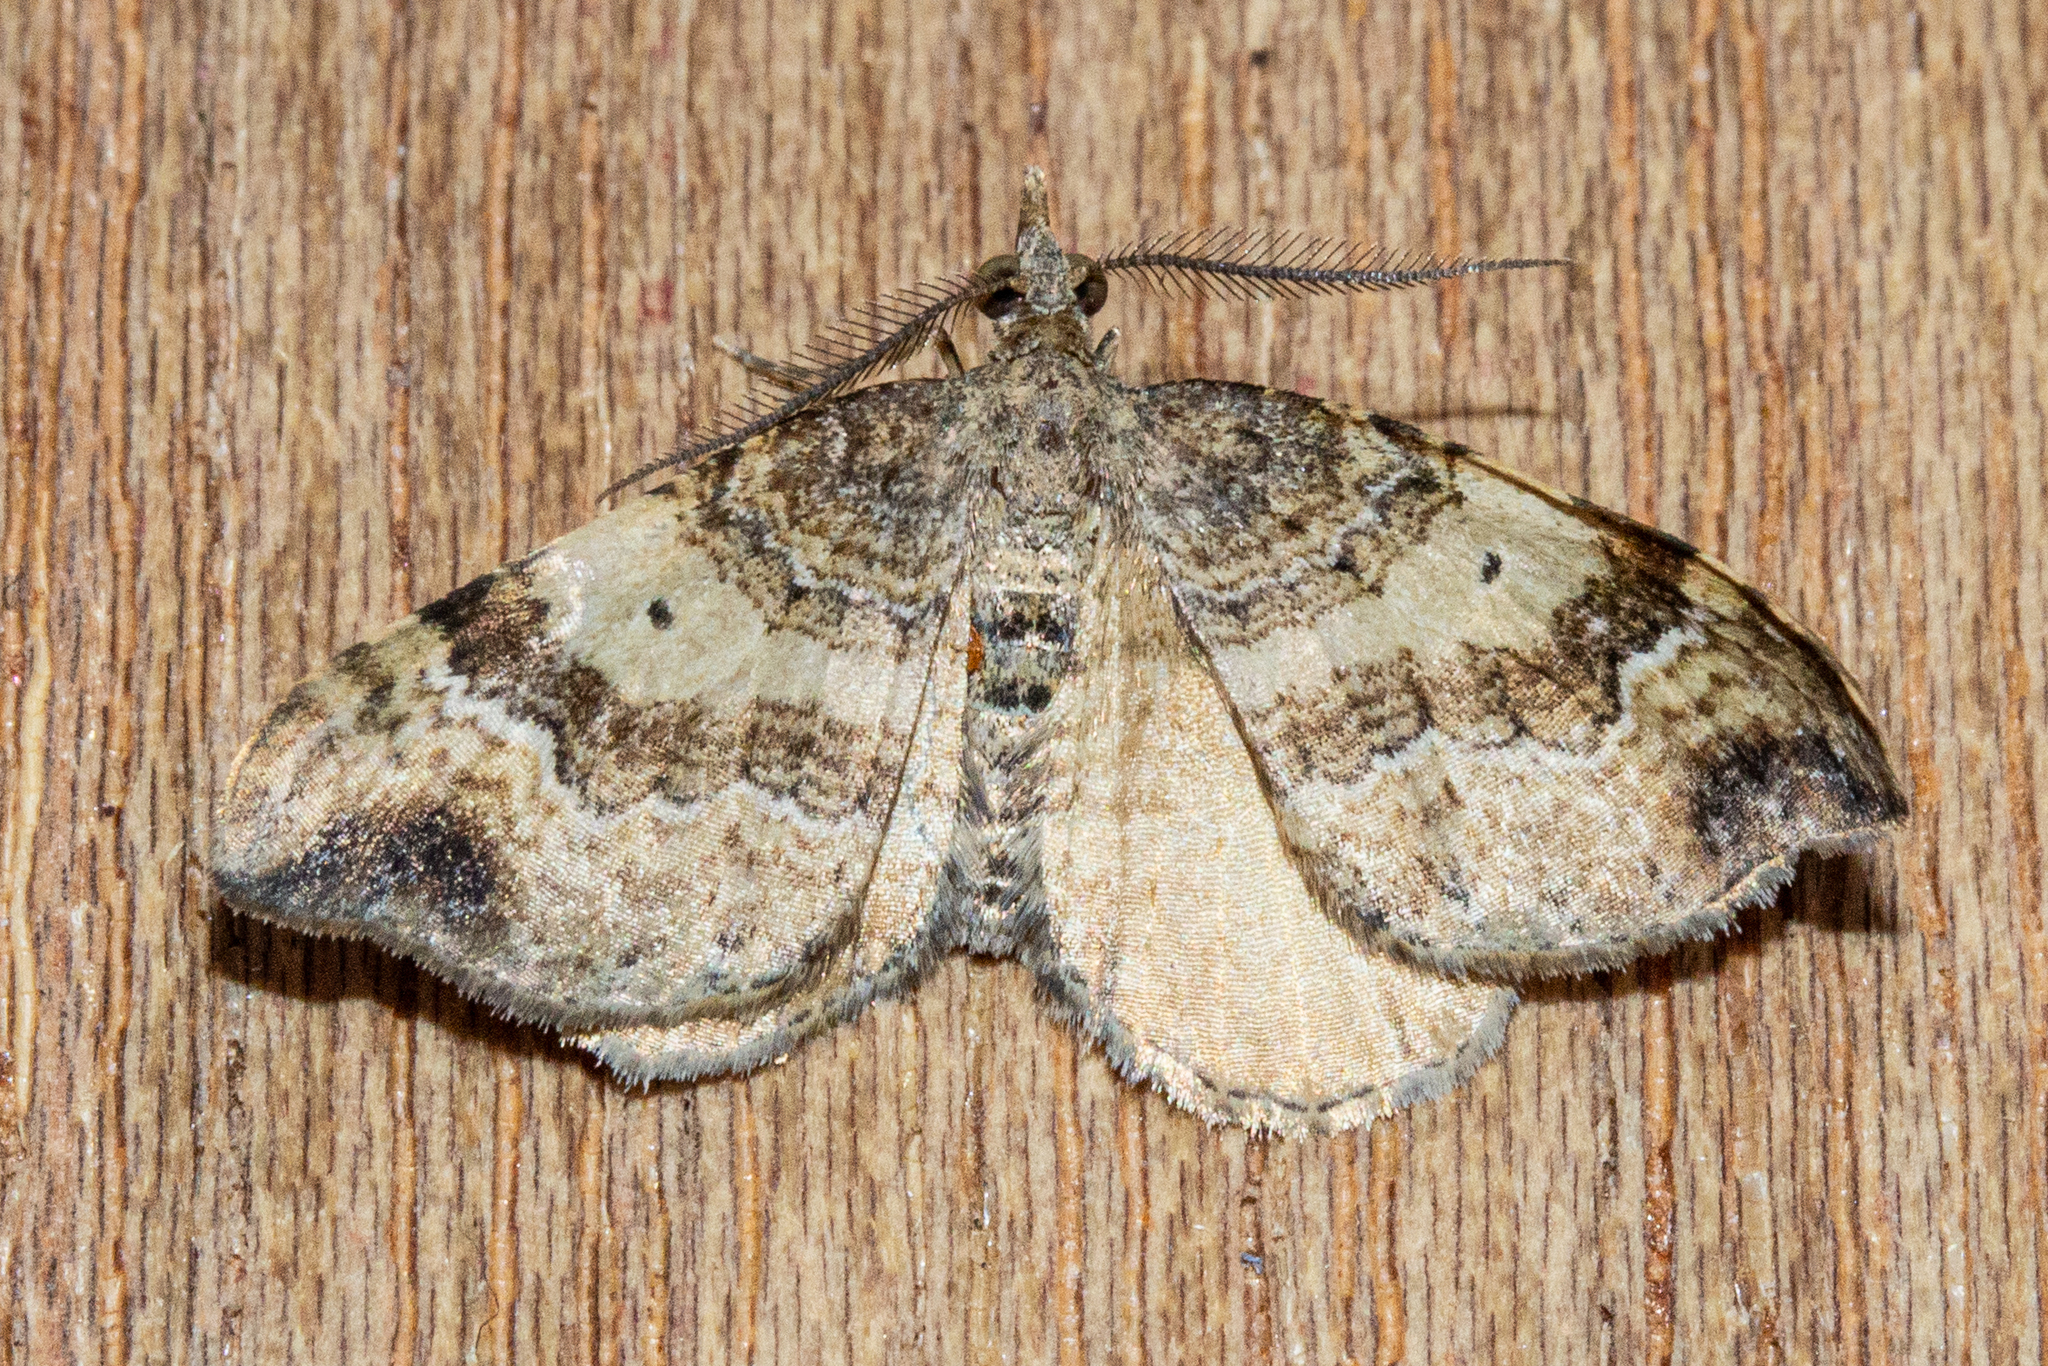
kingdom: Animalia
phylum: Arthropoda
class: Insecta
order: Lepidoptera
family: Geometridae
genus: Homodotis
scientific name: Homodotis megaspilata
